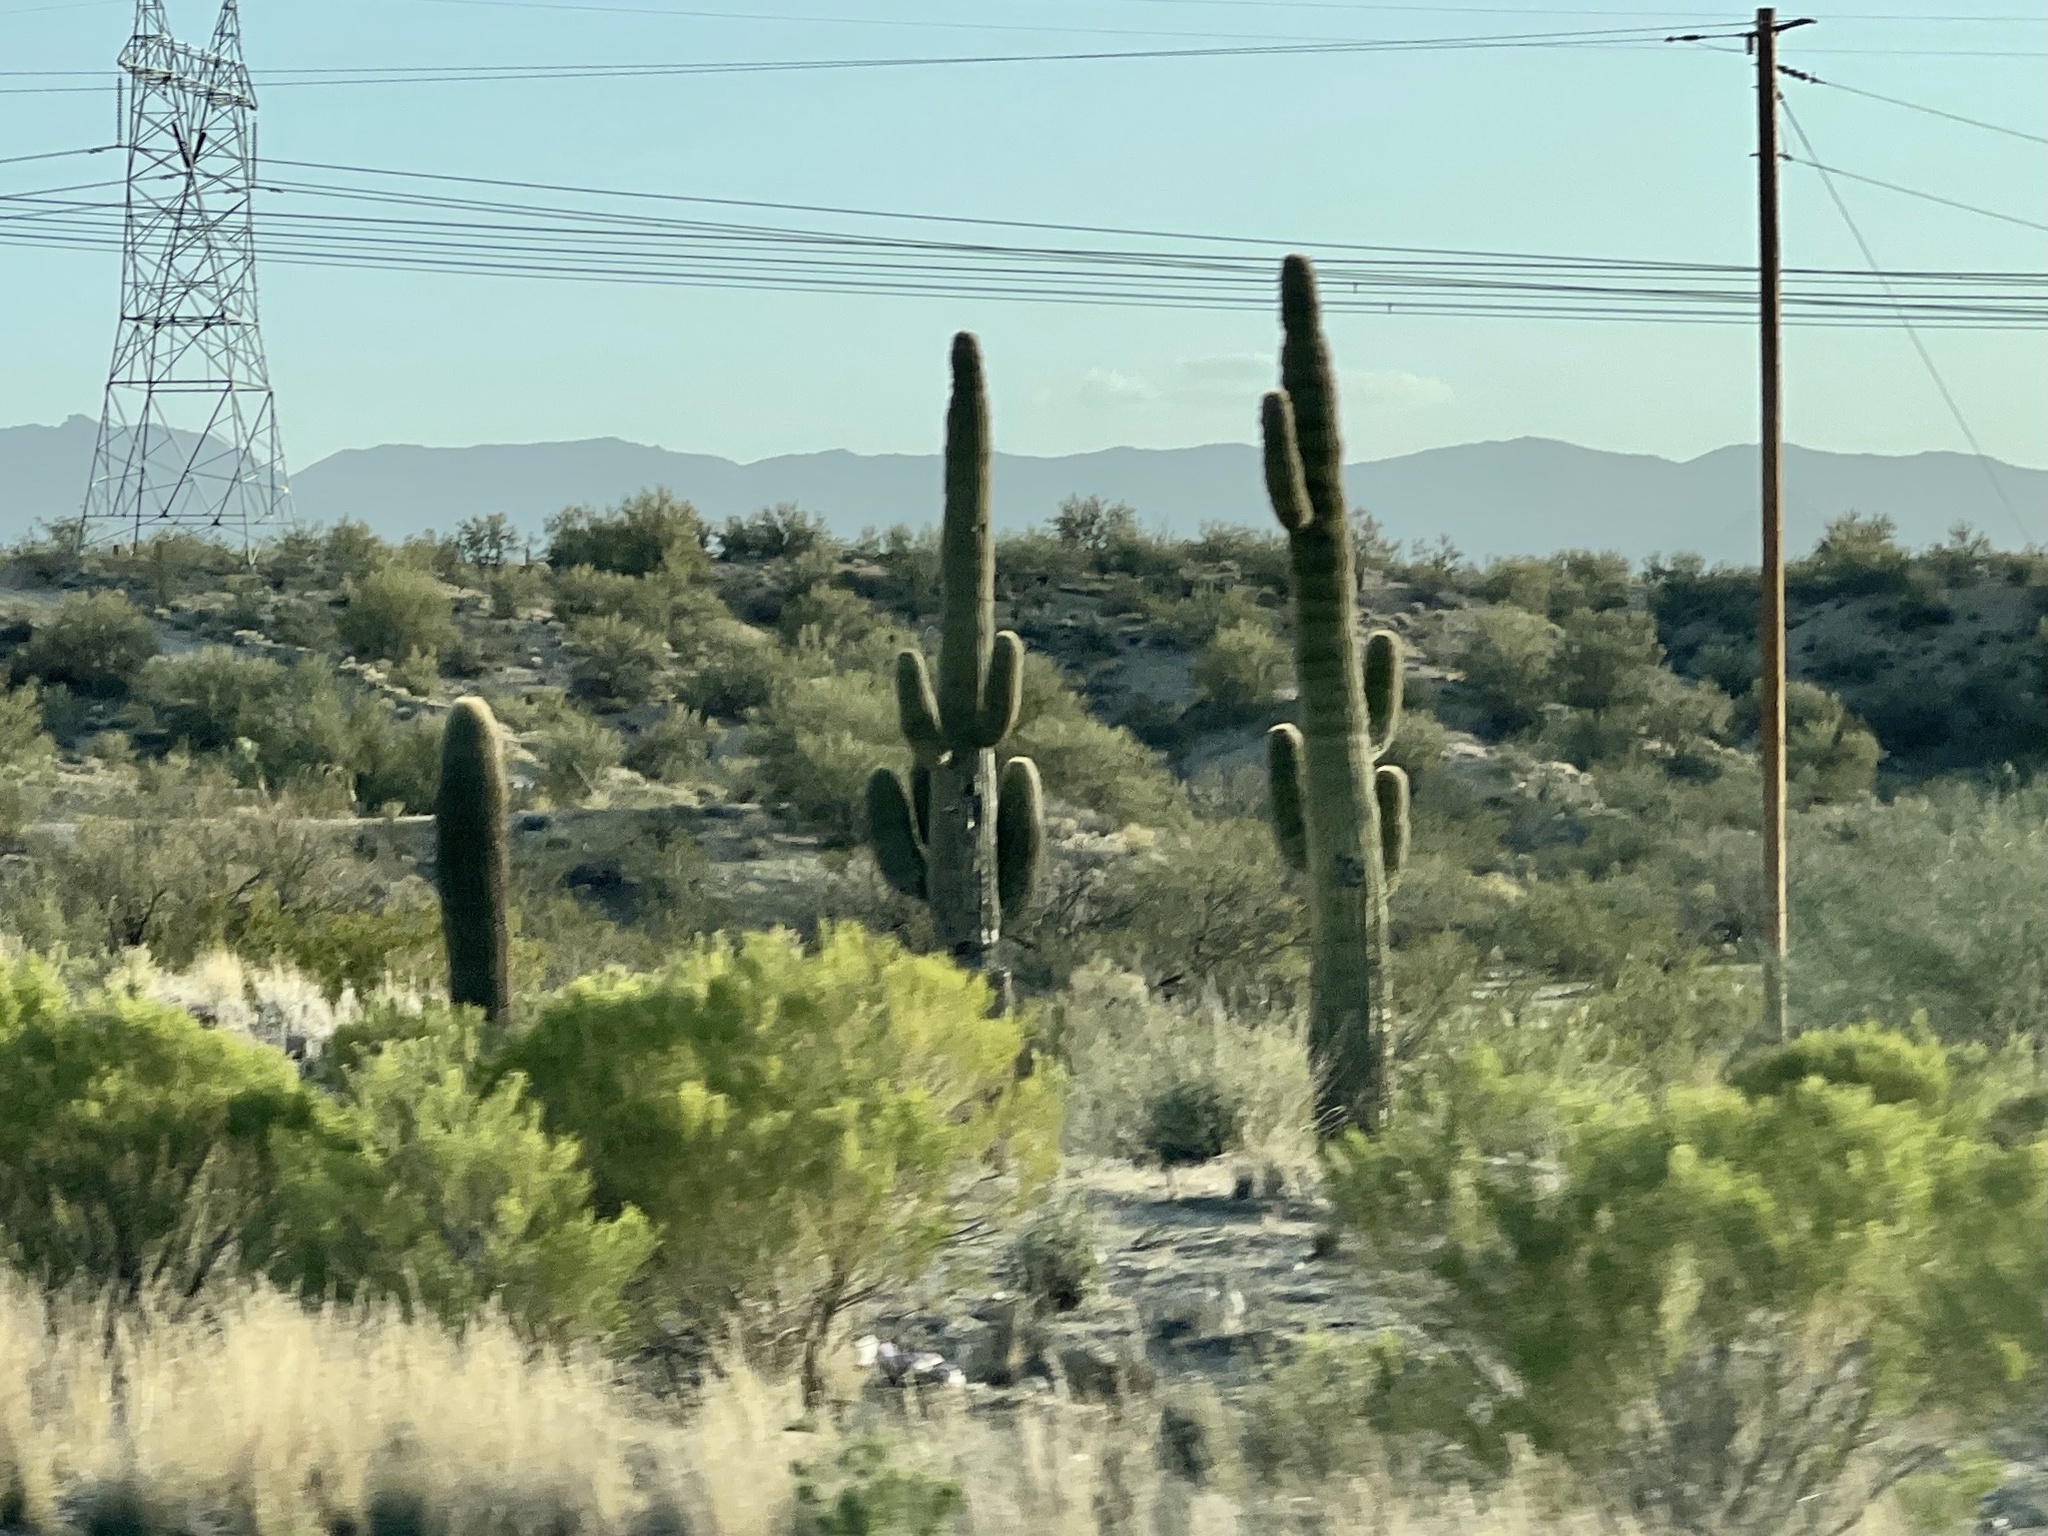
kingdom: Plantae
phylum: Tracheophyta
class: Magnoliopsida
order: Caryophyllales
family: Cactaceae
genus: Carnegiea
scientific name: Carnegiea gigantea
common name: Saguaro
